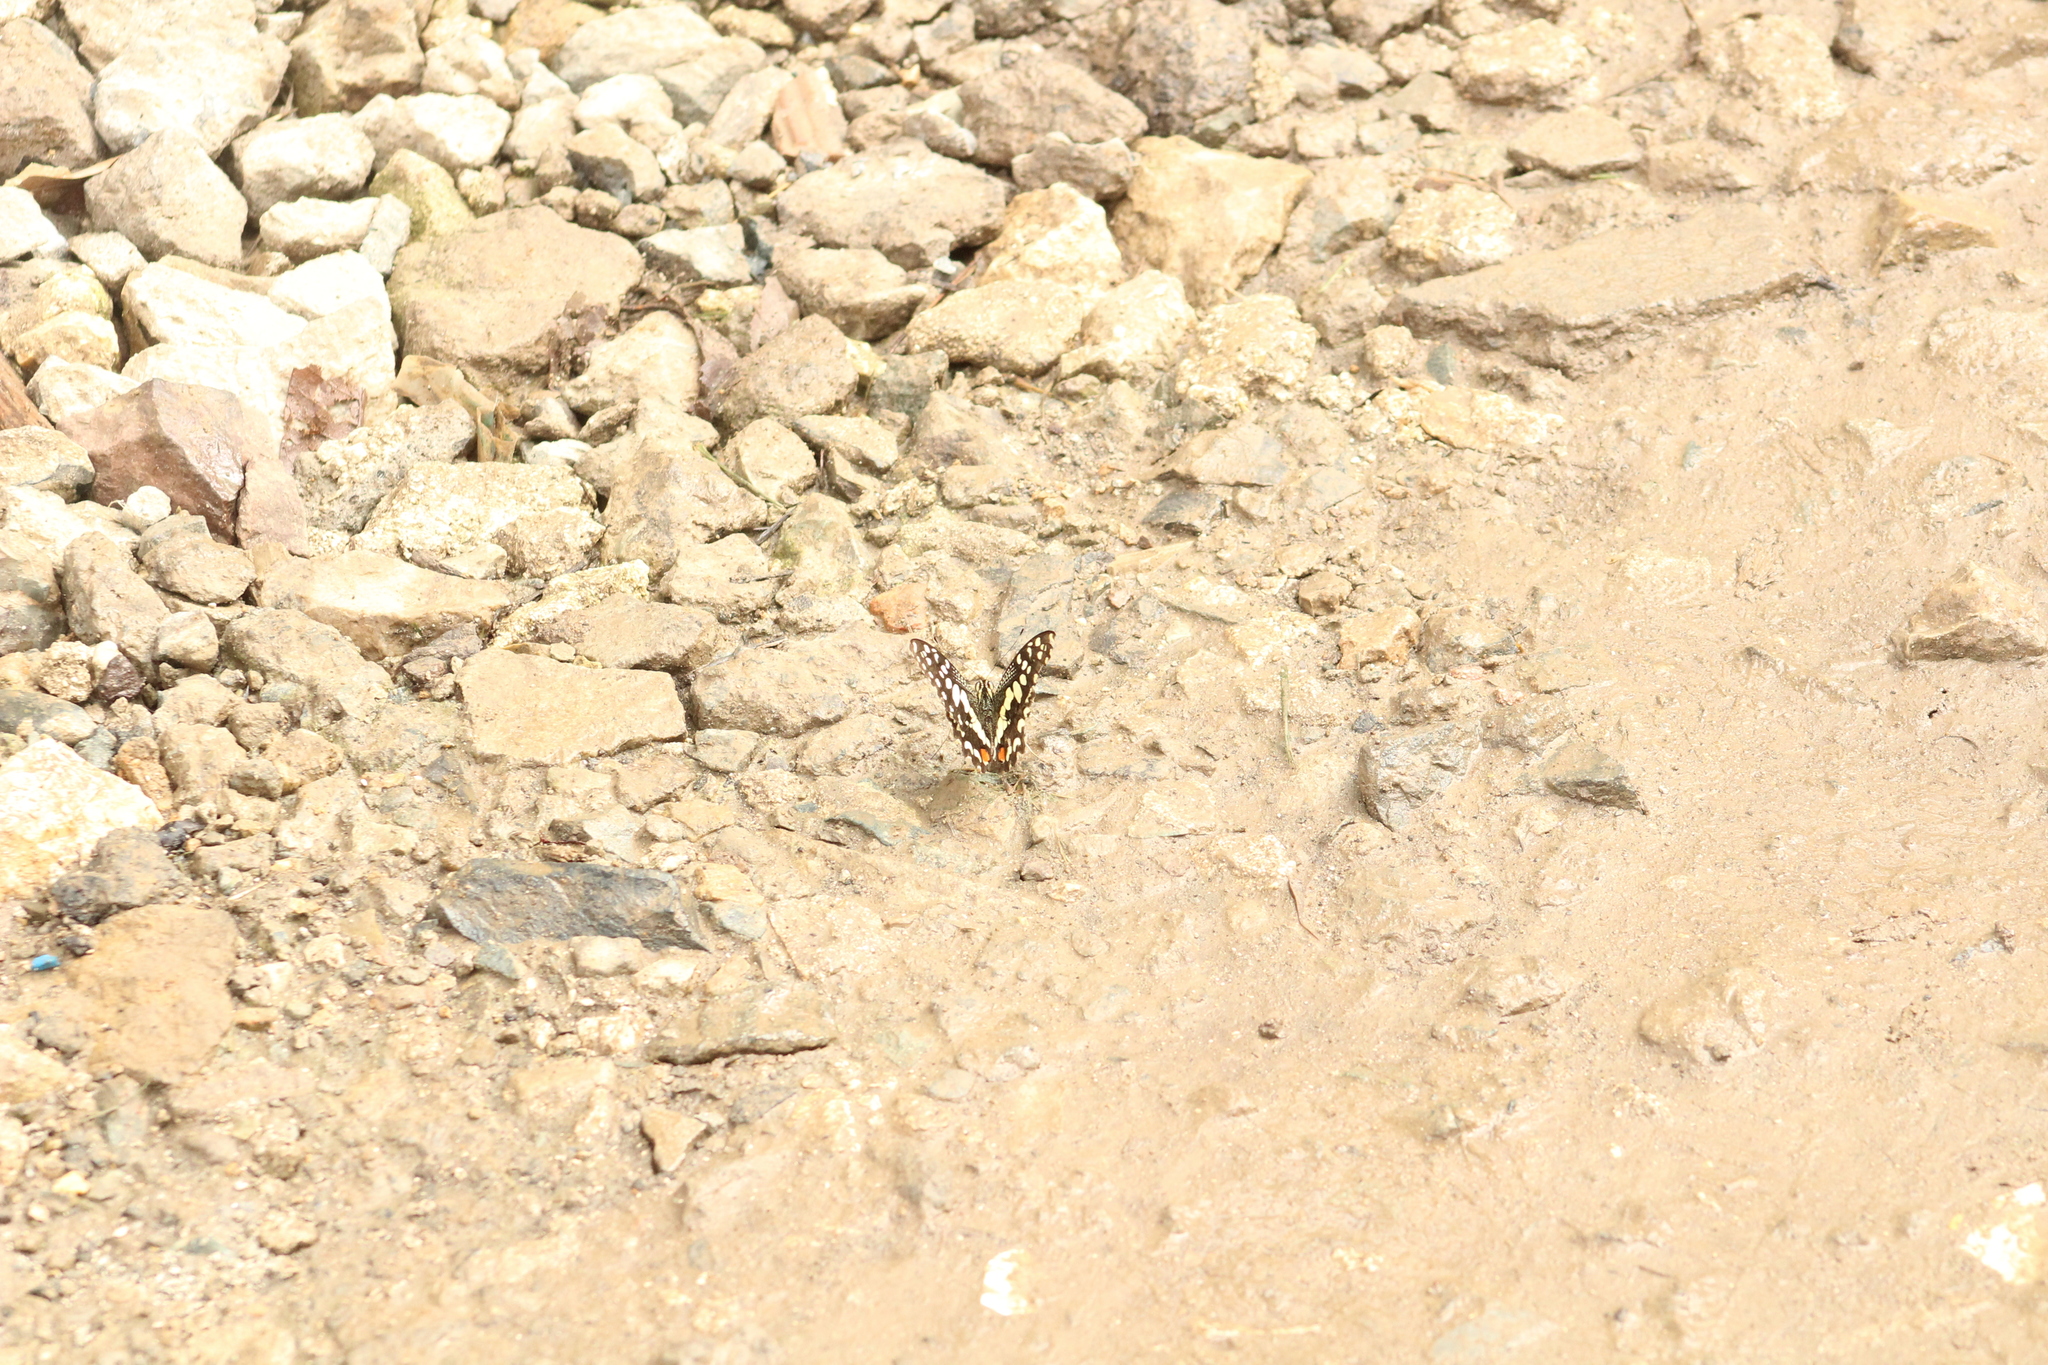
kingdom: Animalia
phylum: Arthropoda
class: Insecta
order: Lepidoptera
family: Papilionidae
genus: Papilio
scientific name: Papilio demoleus
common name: Lime butterfly
